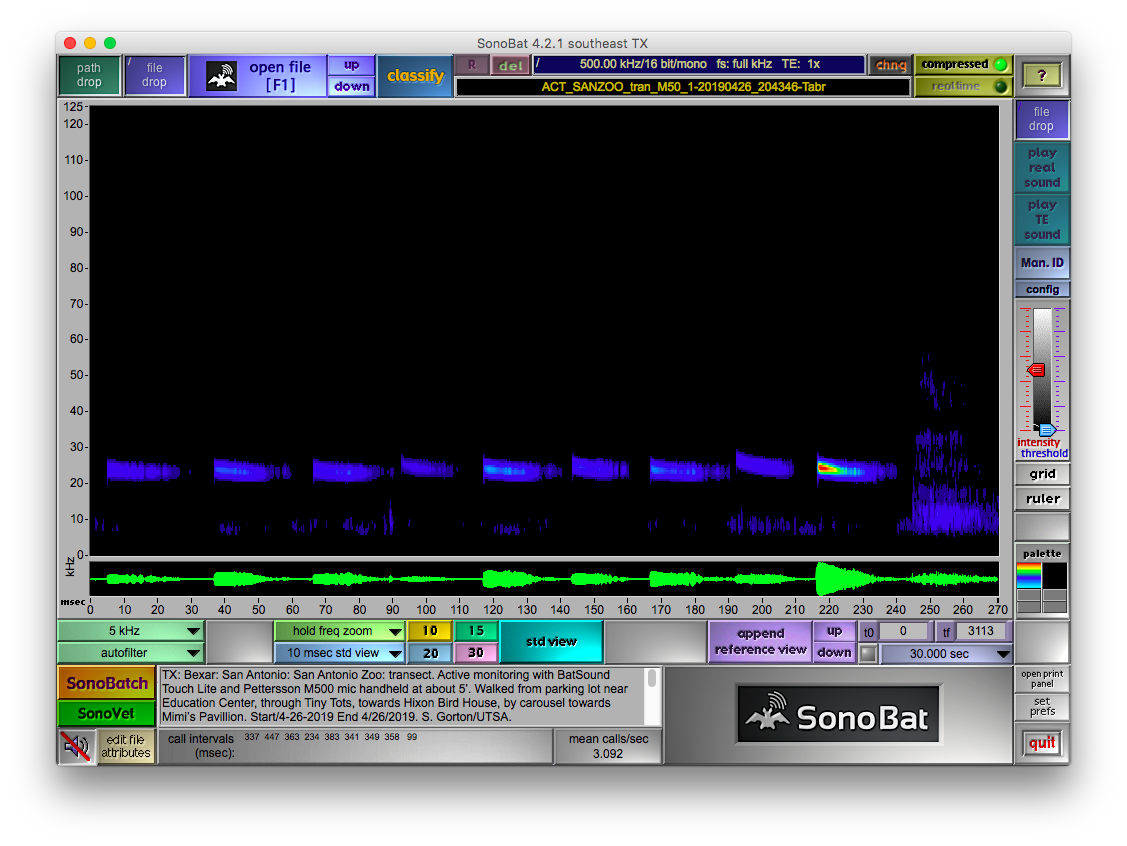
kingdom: Animalia
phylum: Chordata
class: Mammalia
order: Chiroptera
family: Molossidae
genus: Tadarida
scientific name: Tadarida brasiliensis
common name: Mexican free-tailed bat
